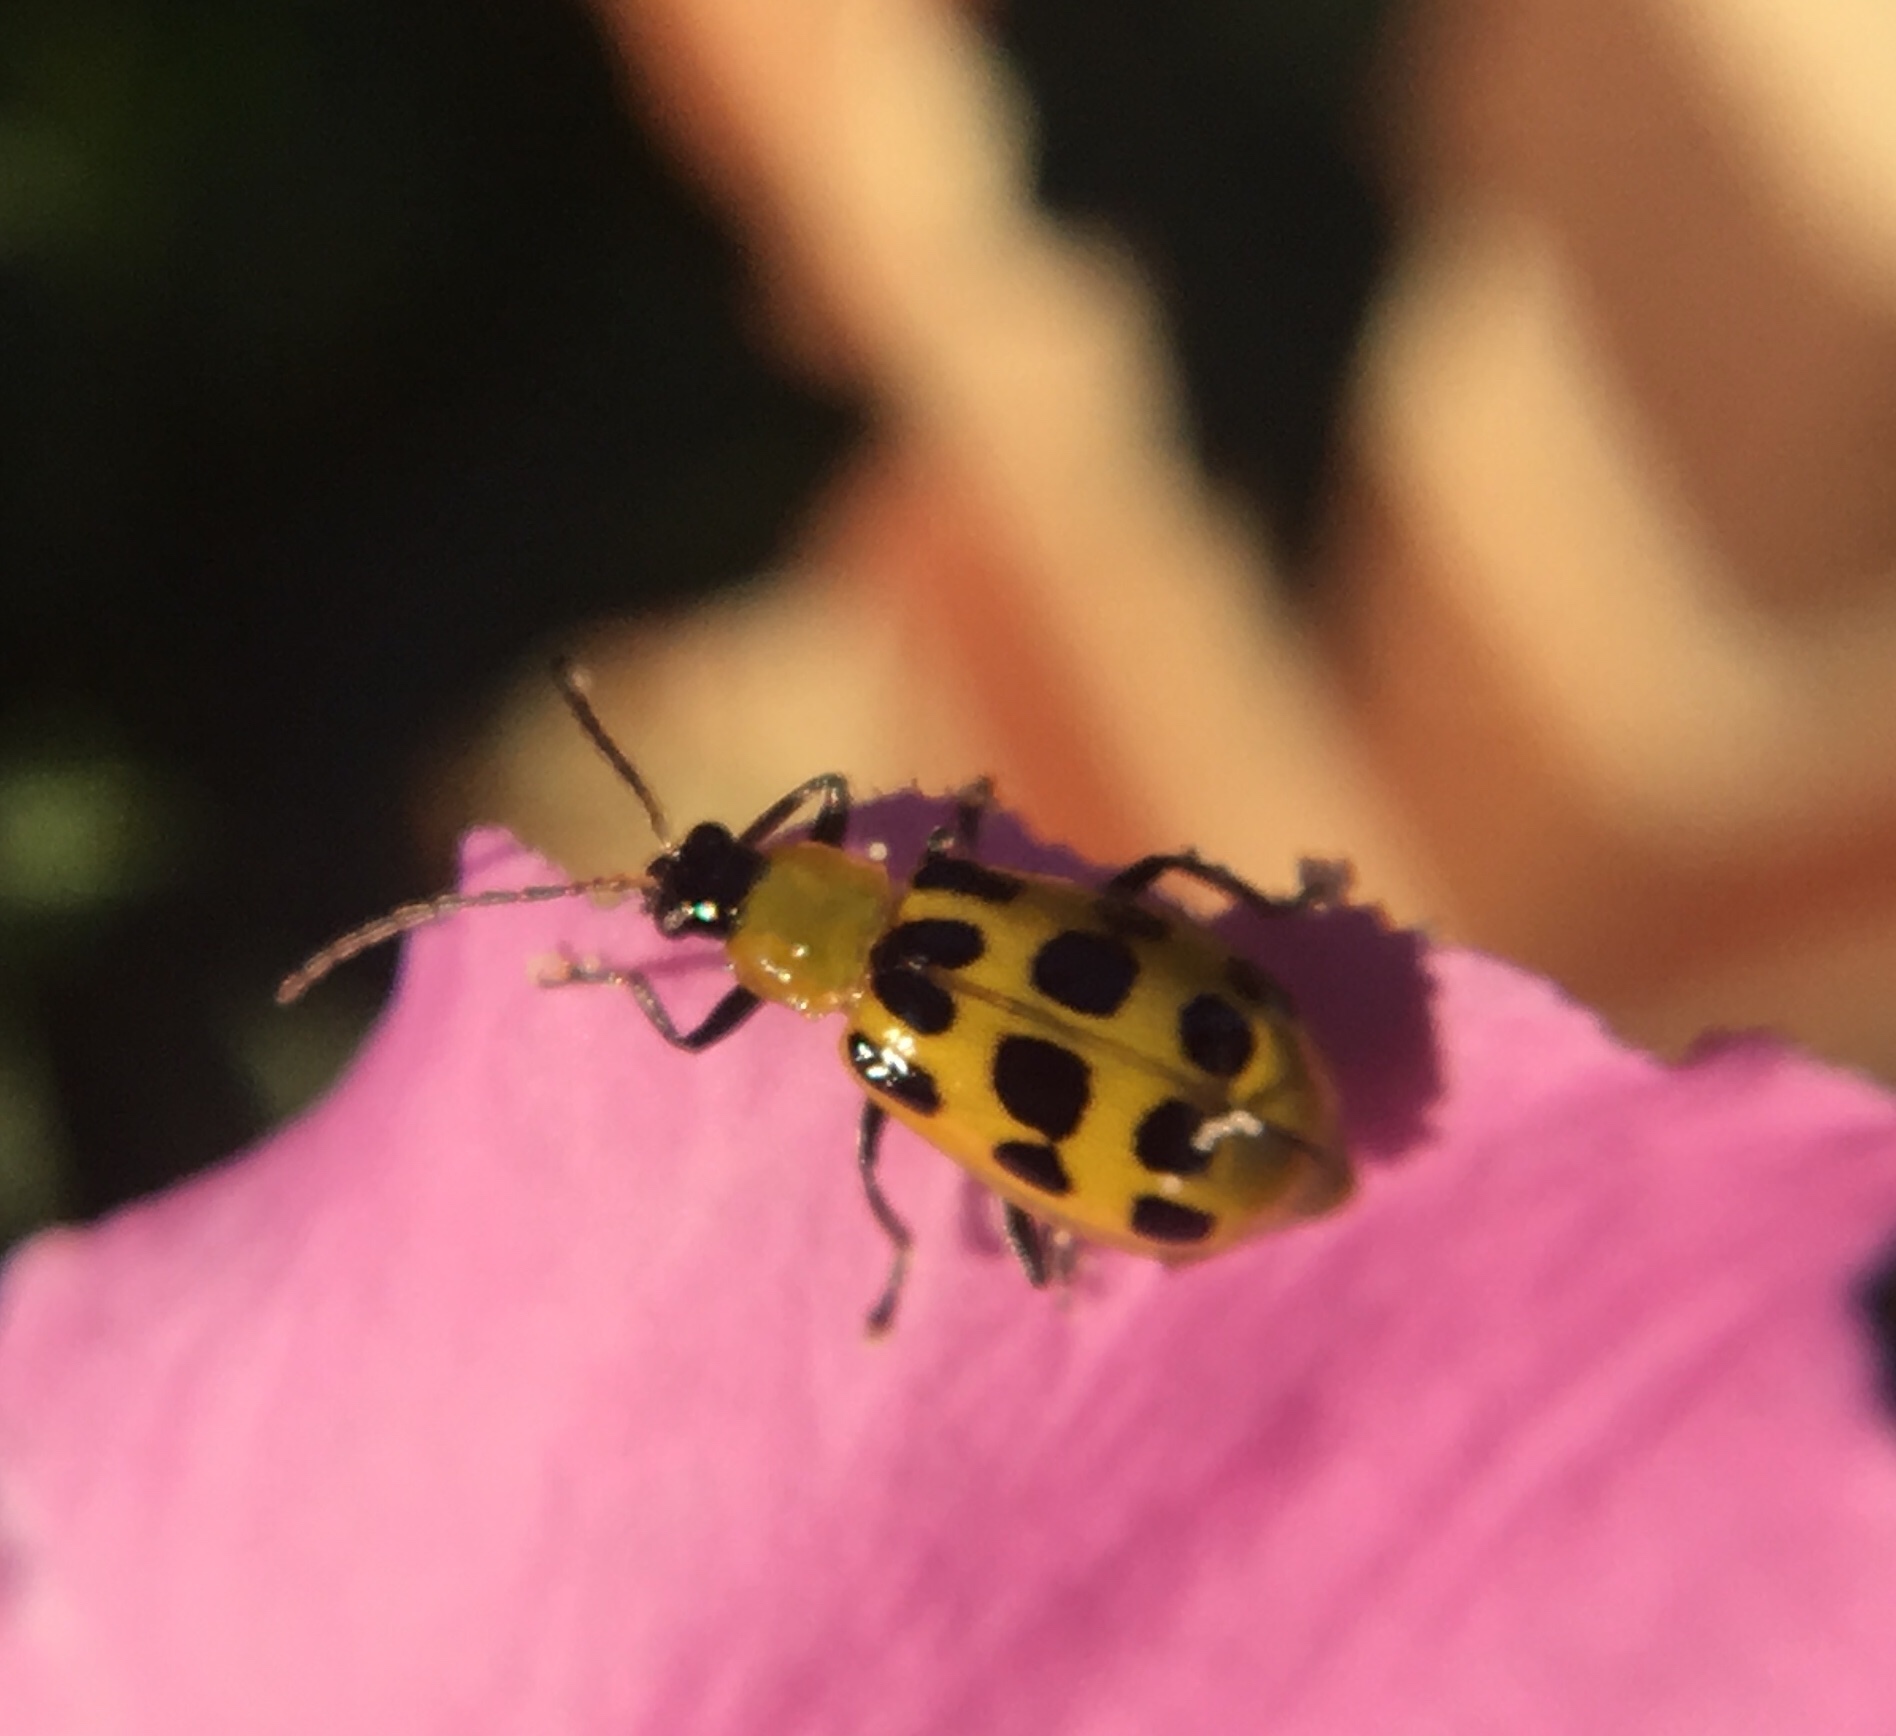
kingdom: Animalia
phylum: Arthropoda
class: Insecta
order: Coleoptera
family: Chrysomelidae
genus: Diabrotica
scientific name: Diabrotica undecimpunctata
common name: Spotted cucumber beetle
